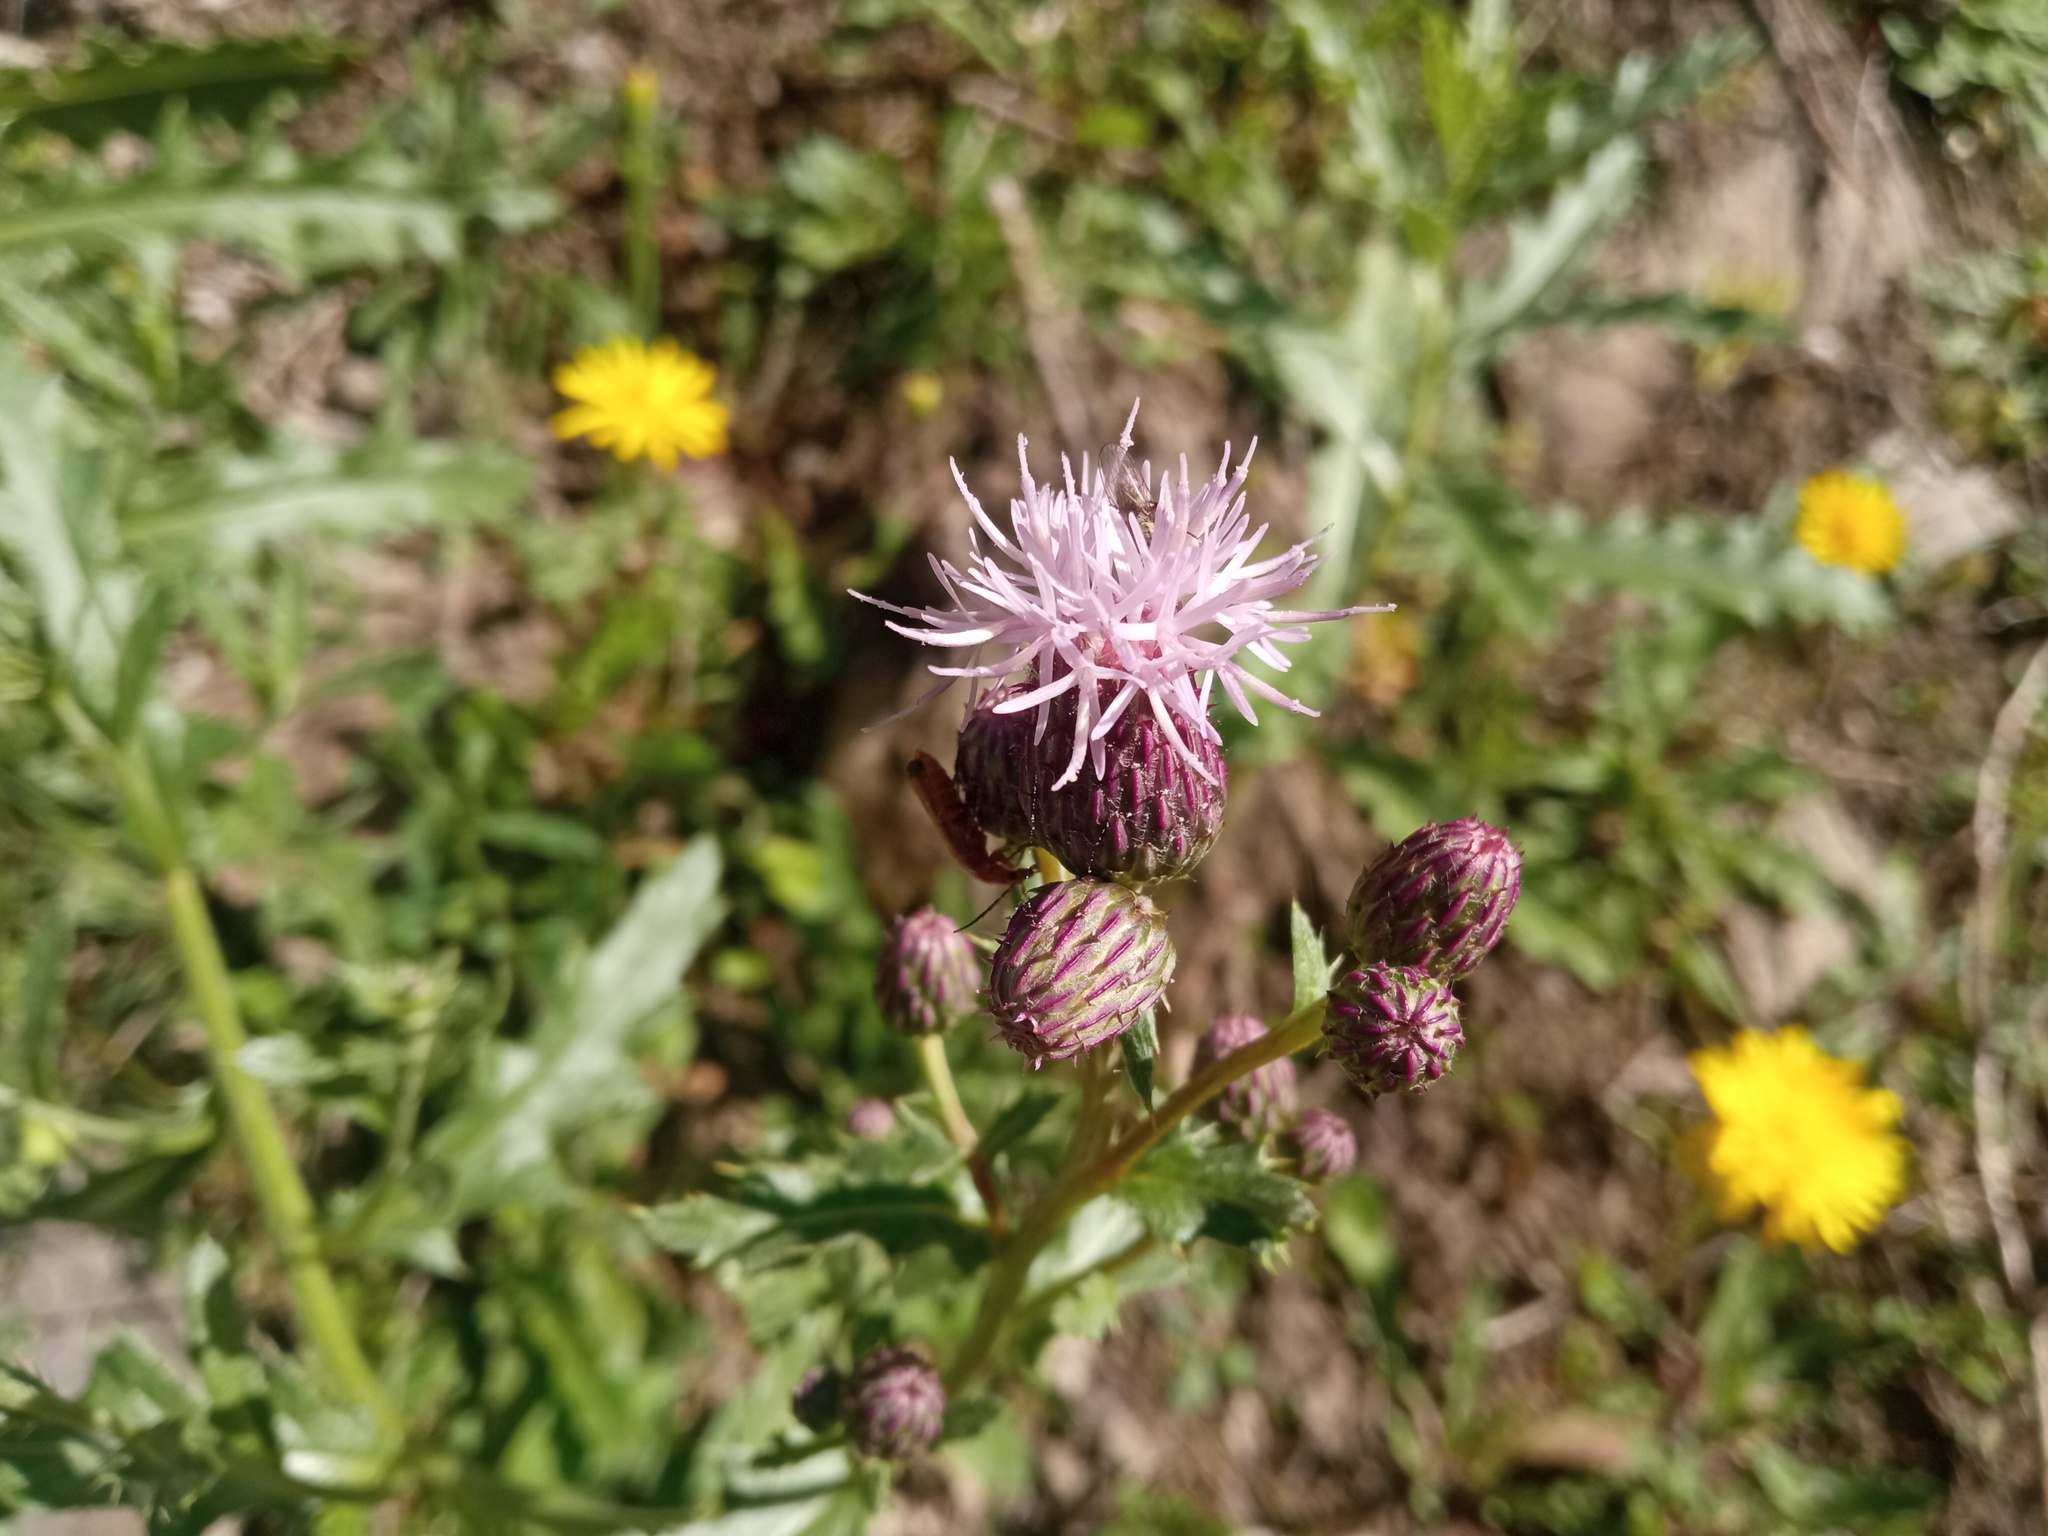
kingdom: Plantae
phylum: Tracheophyta
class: Magnoliopsida
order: Asterales
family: Asteraceae
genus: Cirsium
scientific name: Cirsium arvense
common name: Creeping thistle
